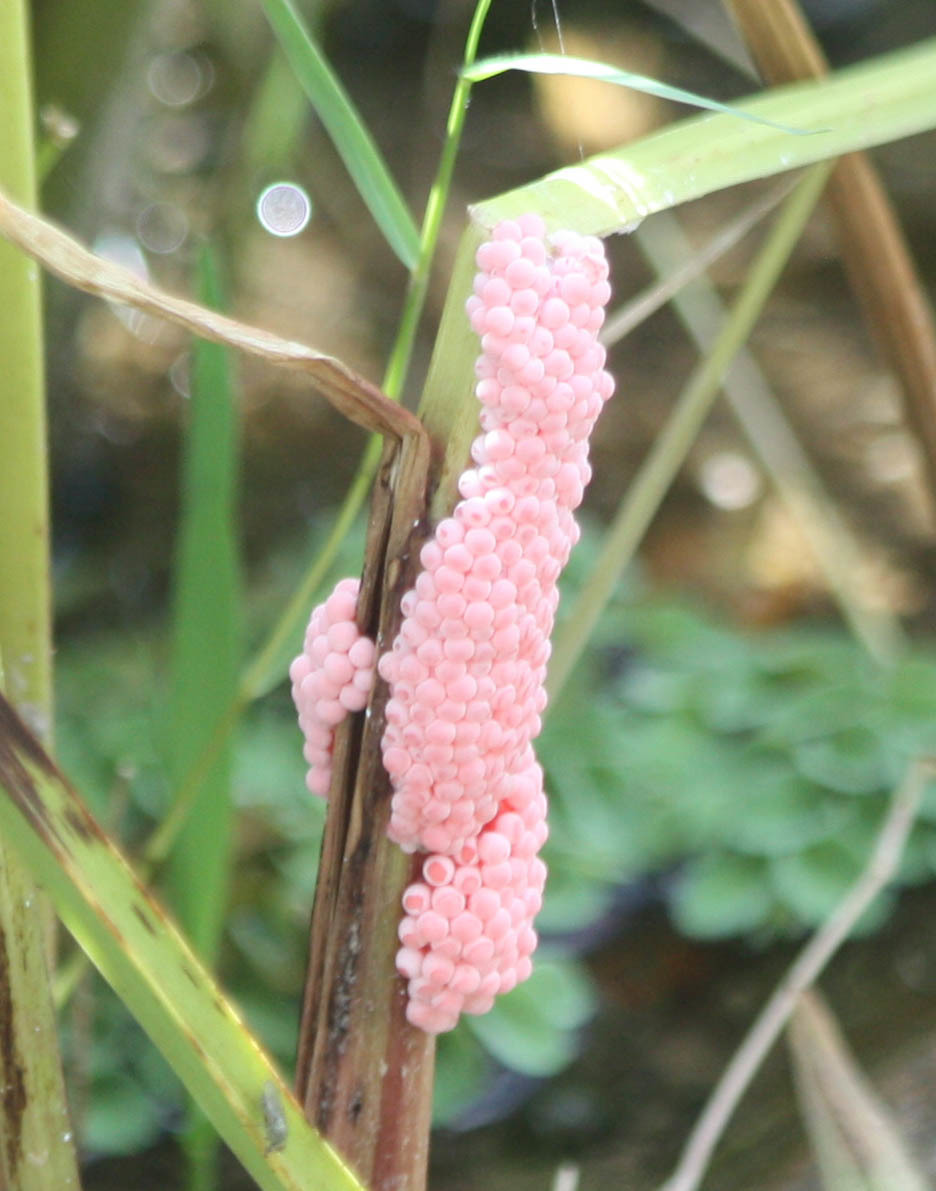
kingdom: Animalia
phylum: Mollusca
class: Gastropoda
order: Architaenioglossa
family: Ampullariidae
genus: Pomacea
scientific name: Pomacea canaliculata
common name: Channeled applesnail
